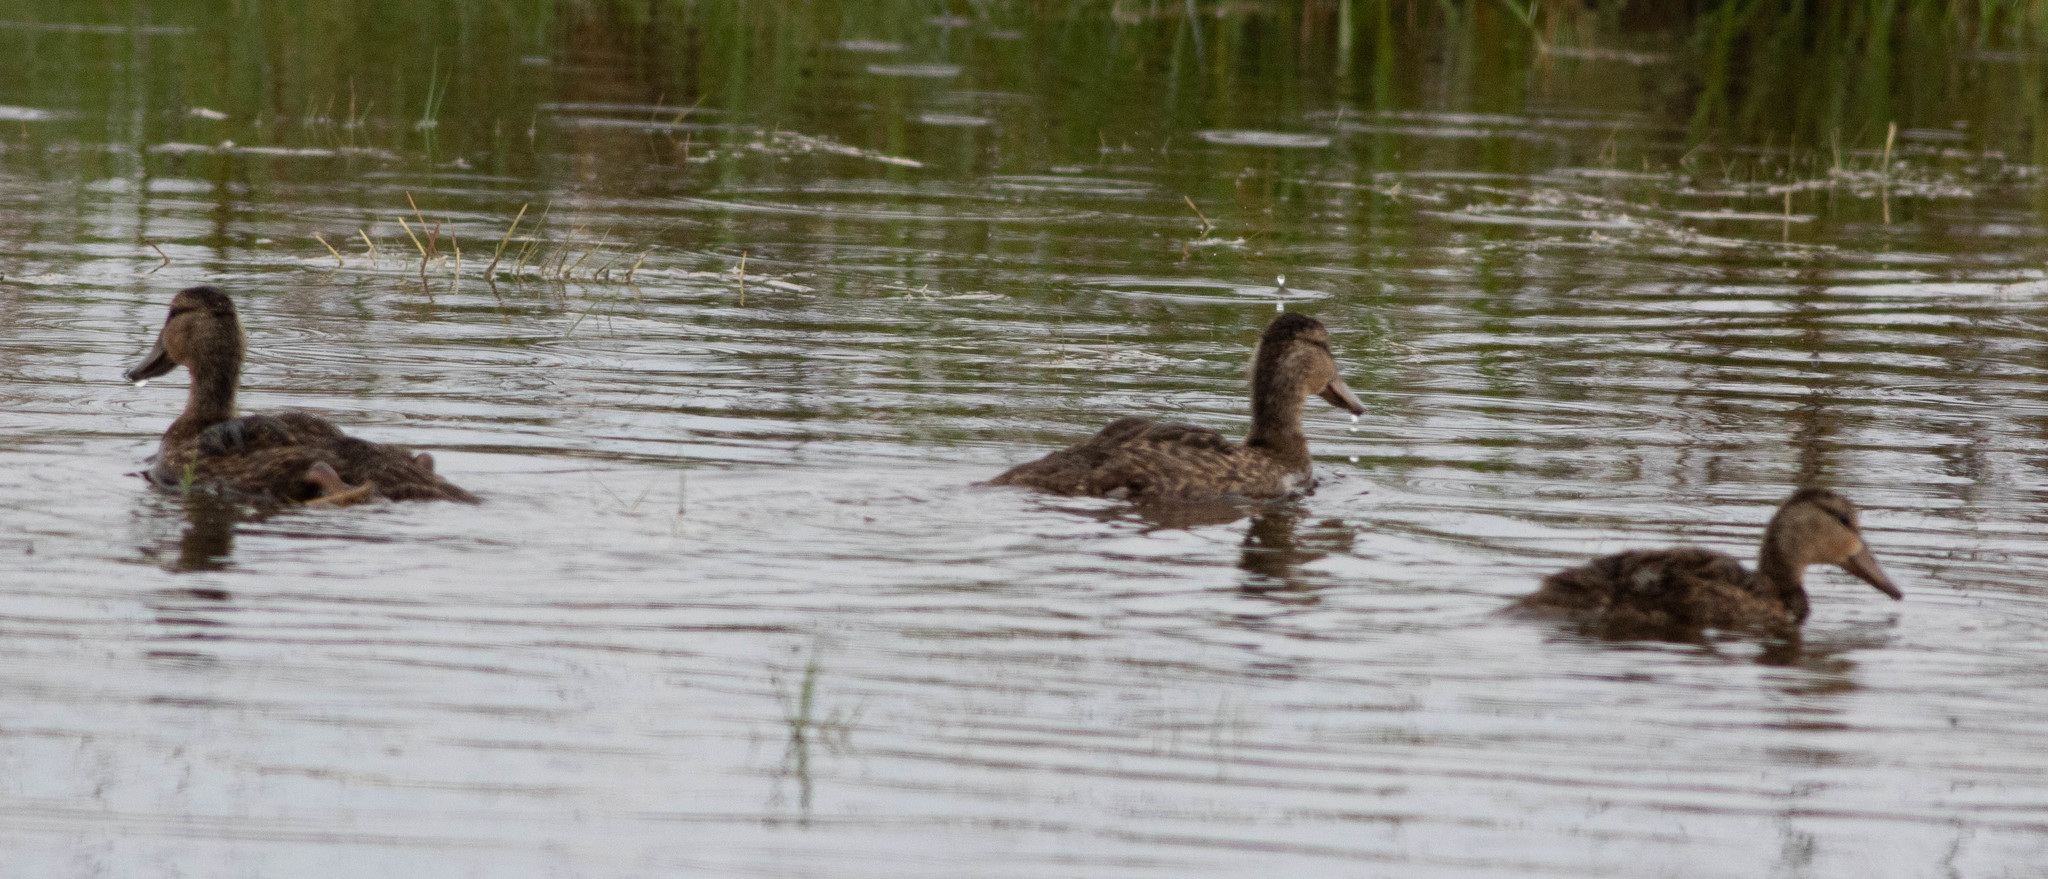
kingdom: Animalia
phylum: Chordata
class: Aves
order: Anseriformes
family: Anatidae
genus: Anas
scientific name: Anas fulvigula
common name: Mottled duck
